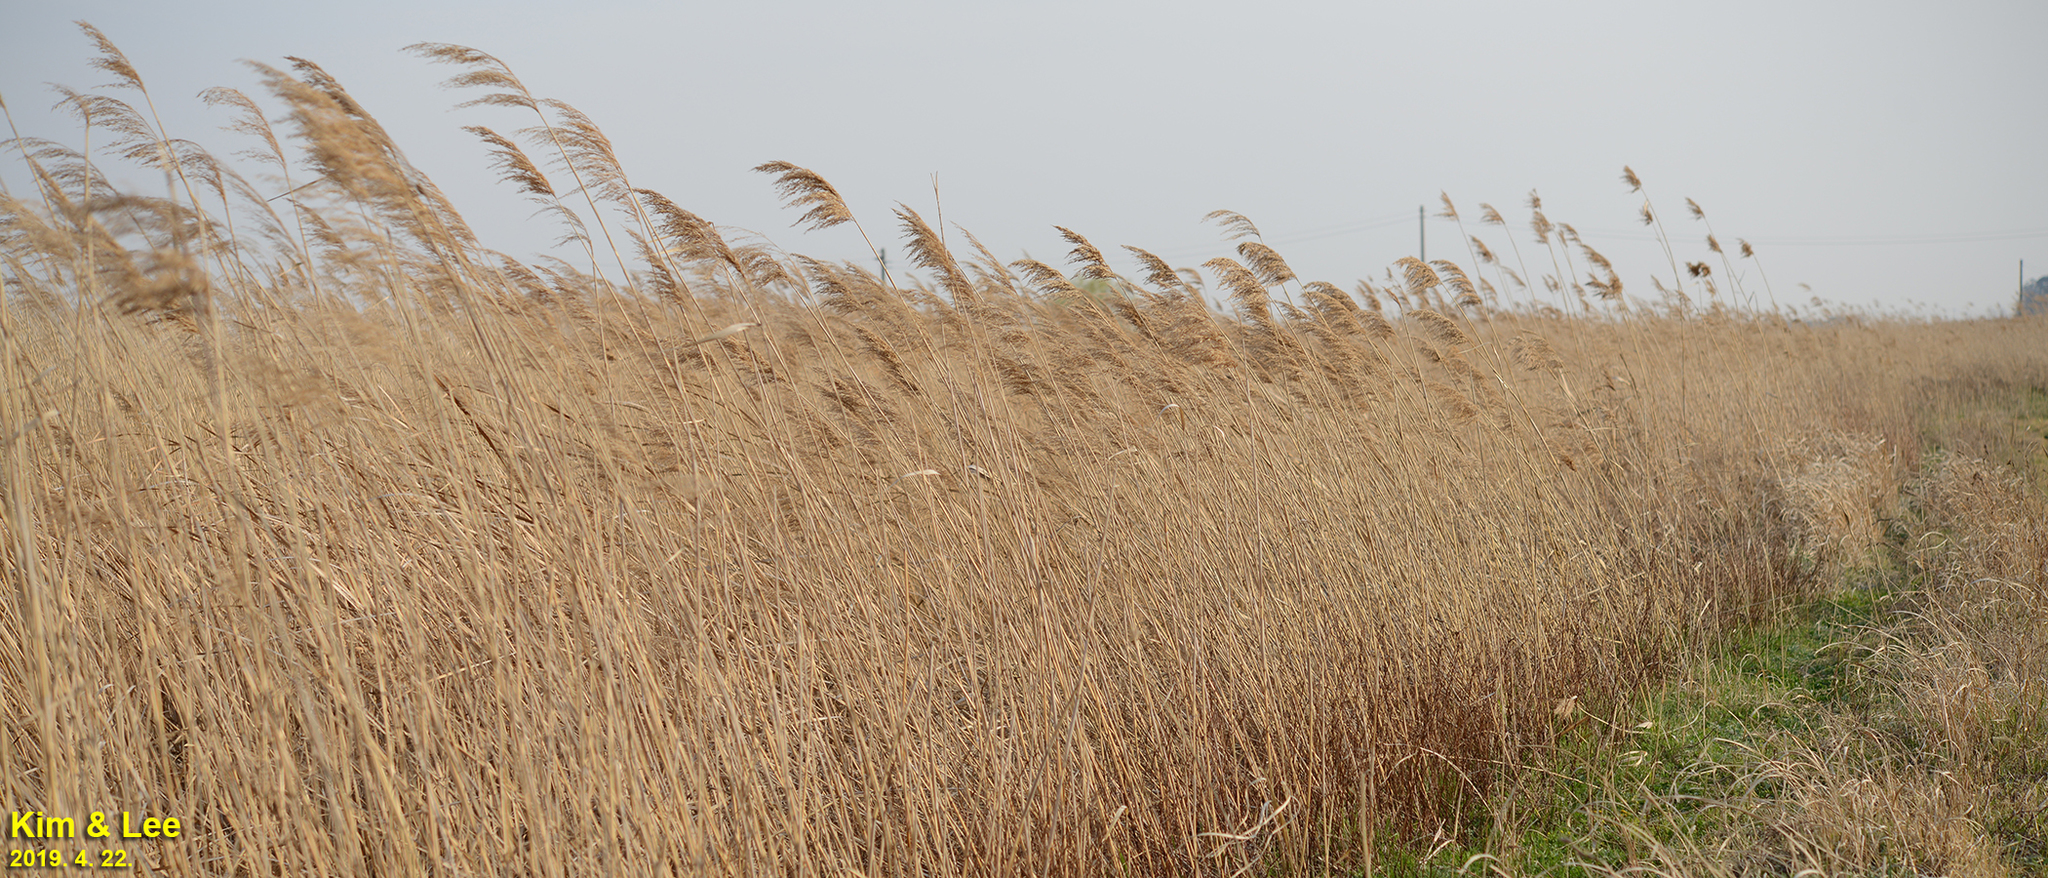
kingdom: Plantae
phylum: Tracheophyta
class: Liliopsida
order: Poales
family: Poaceae
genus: Phragmites
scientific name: Phragmites australis
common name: Common reed
